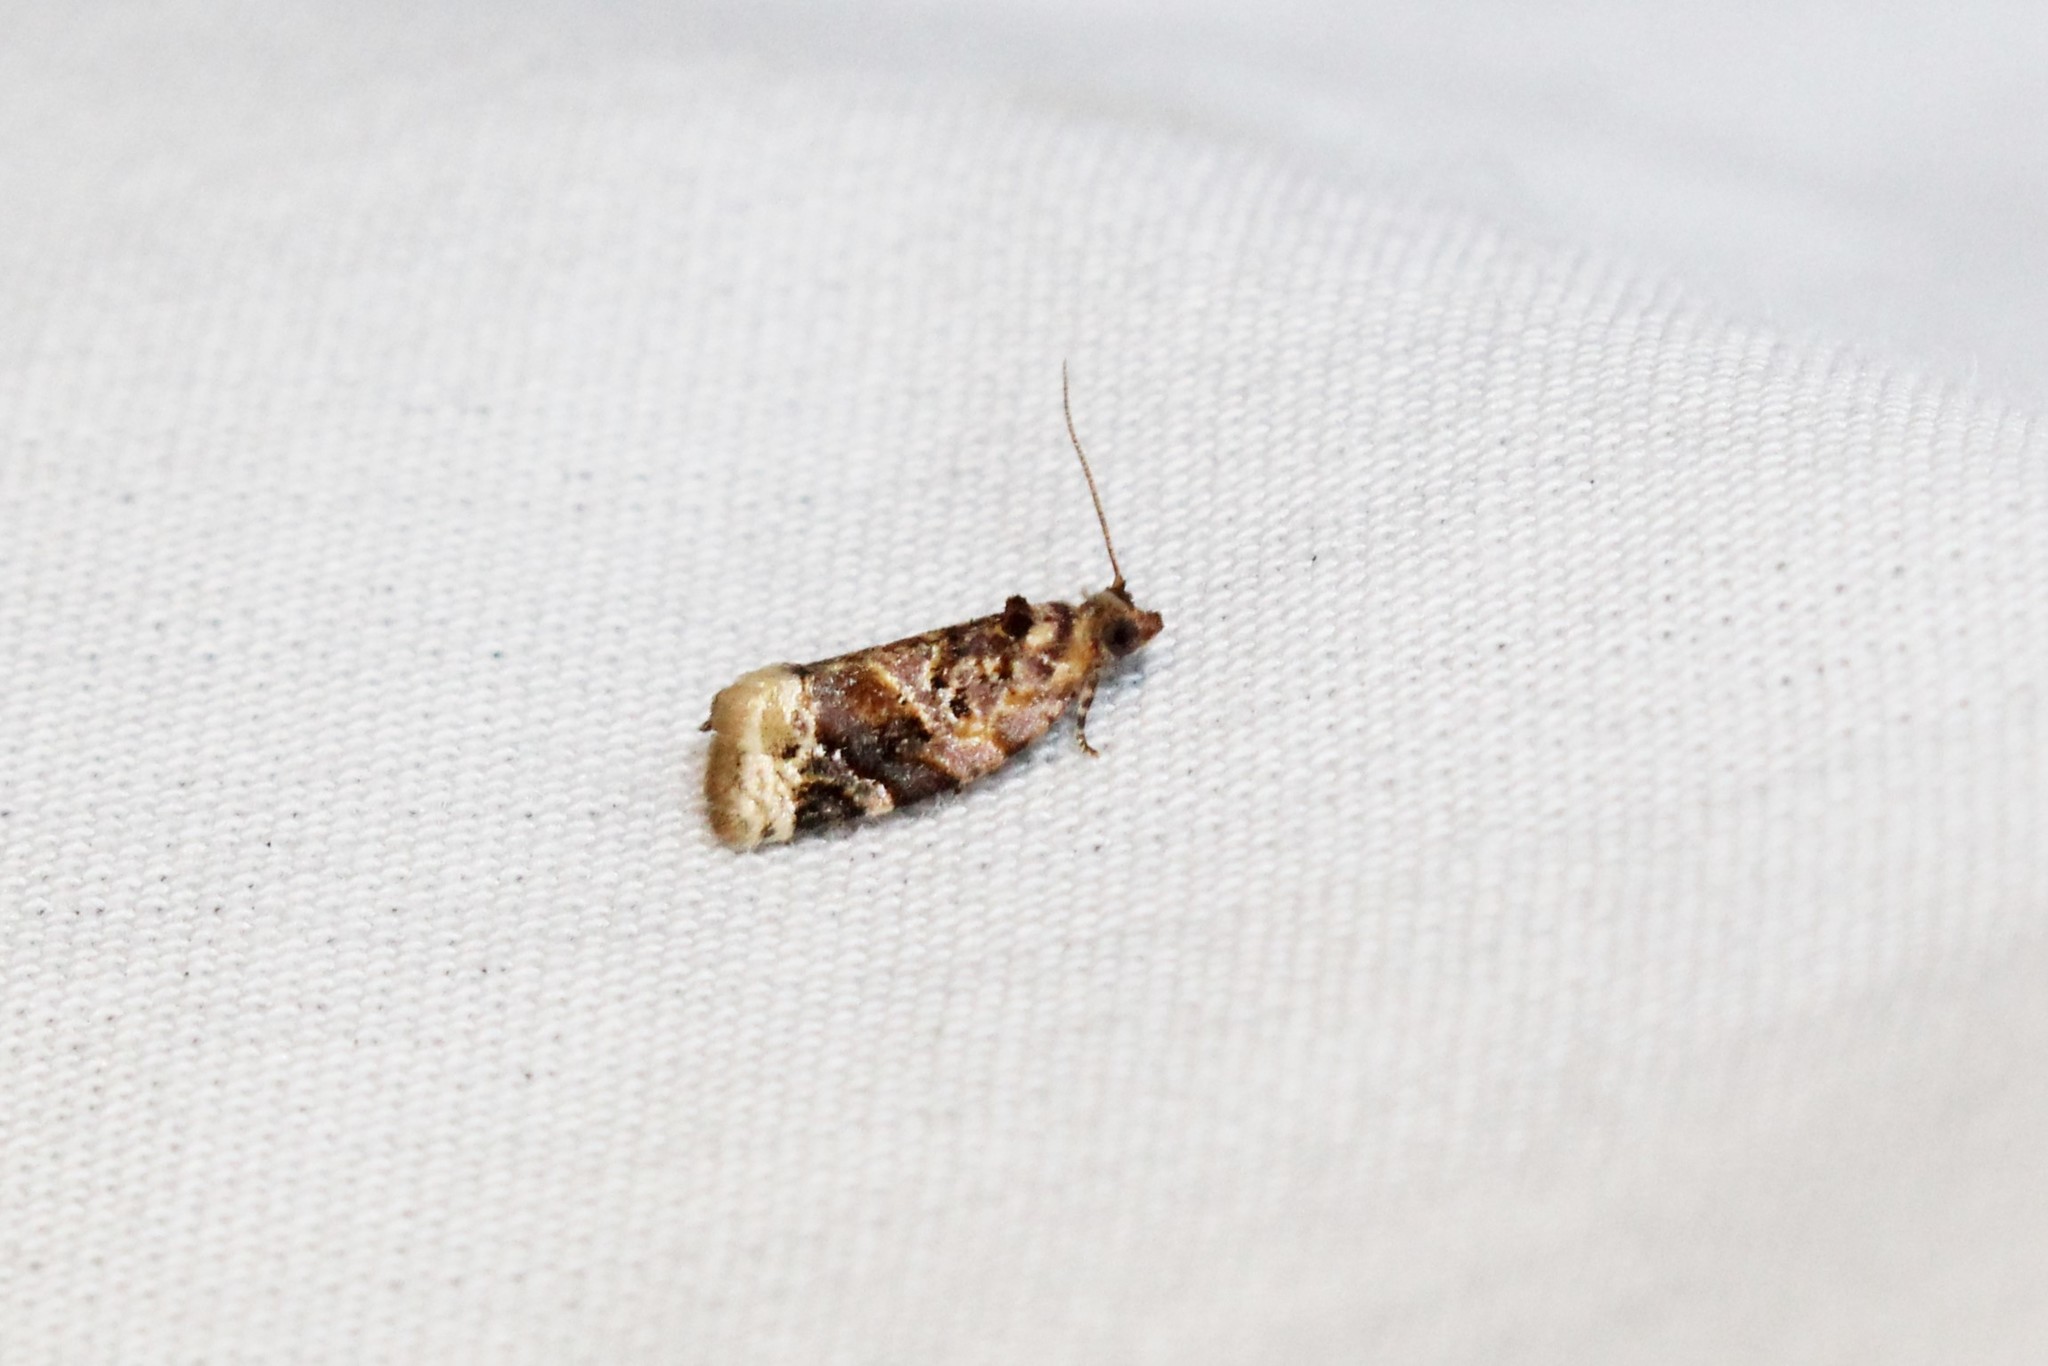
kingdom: Animalia
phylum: Arthropoda
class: Insecta
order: Lepidoptera
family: Tortricidae
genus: Argyrotaenia
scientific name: Argyrotaenia velutinana
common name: Red-banded leafroller moth
